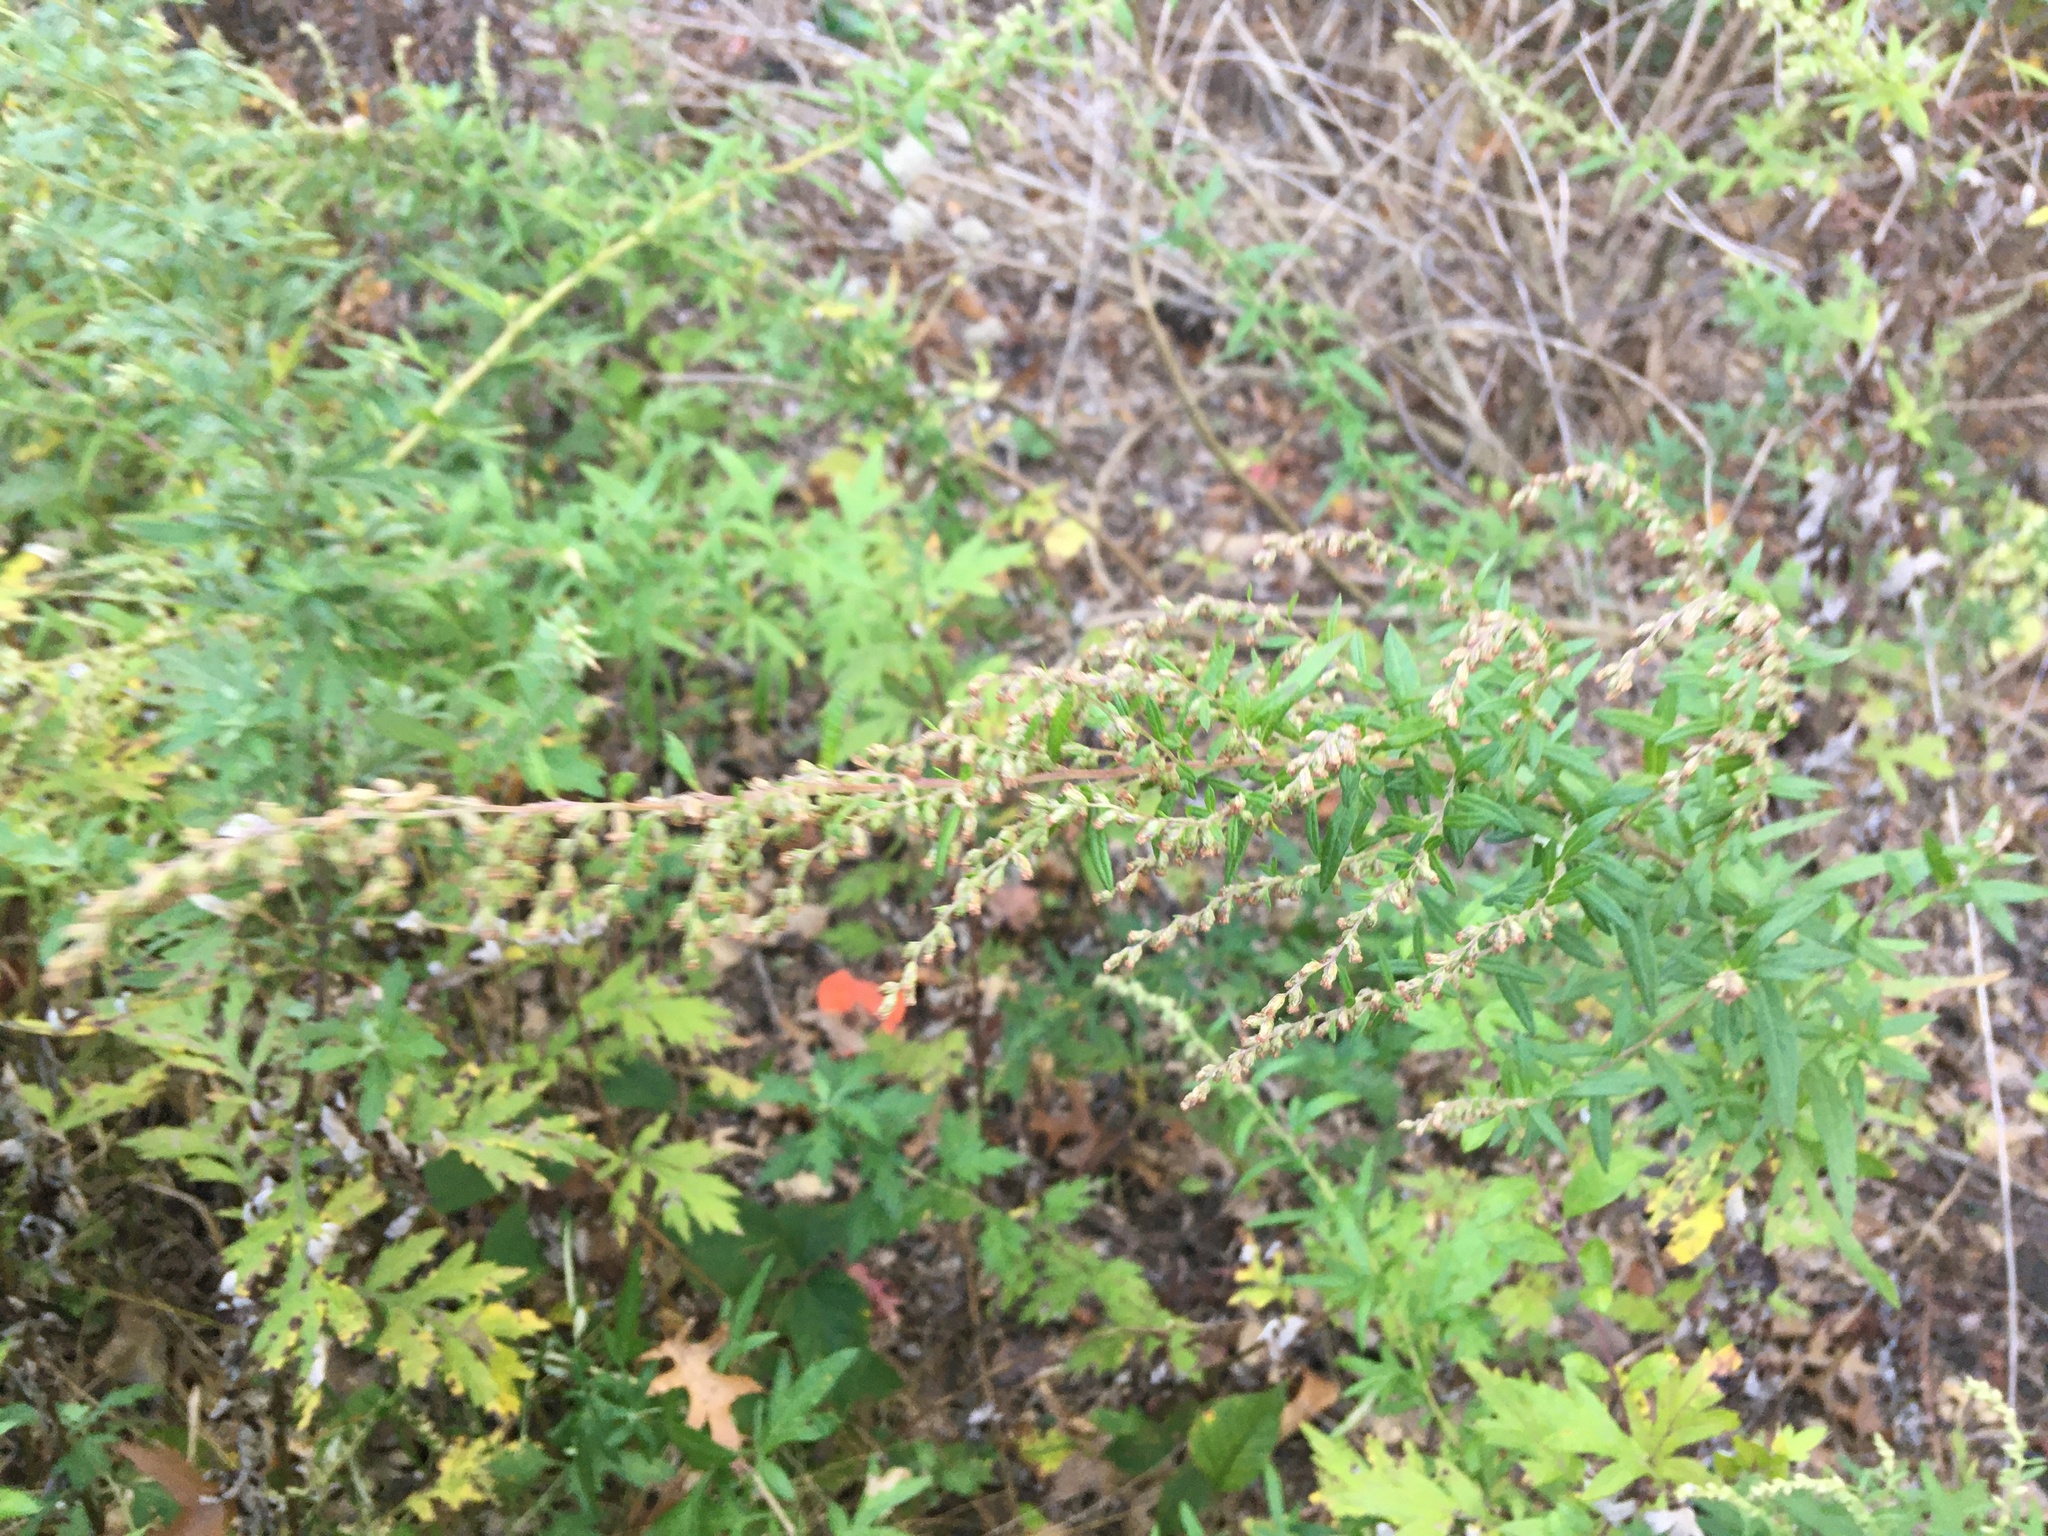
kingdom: Plantae
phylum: Tracheophyta
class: Magnoliopsida
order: Asterales
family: Asteraceae
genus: Artemisia
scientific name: Artemisia vulgaris
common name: Mugwort
